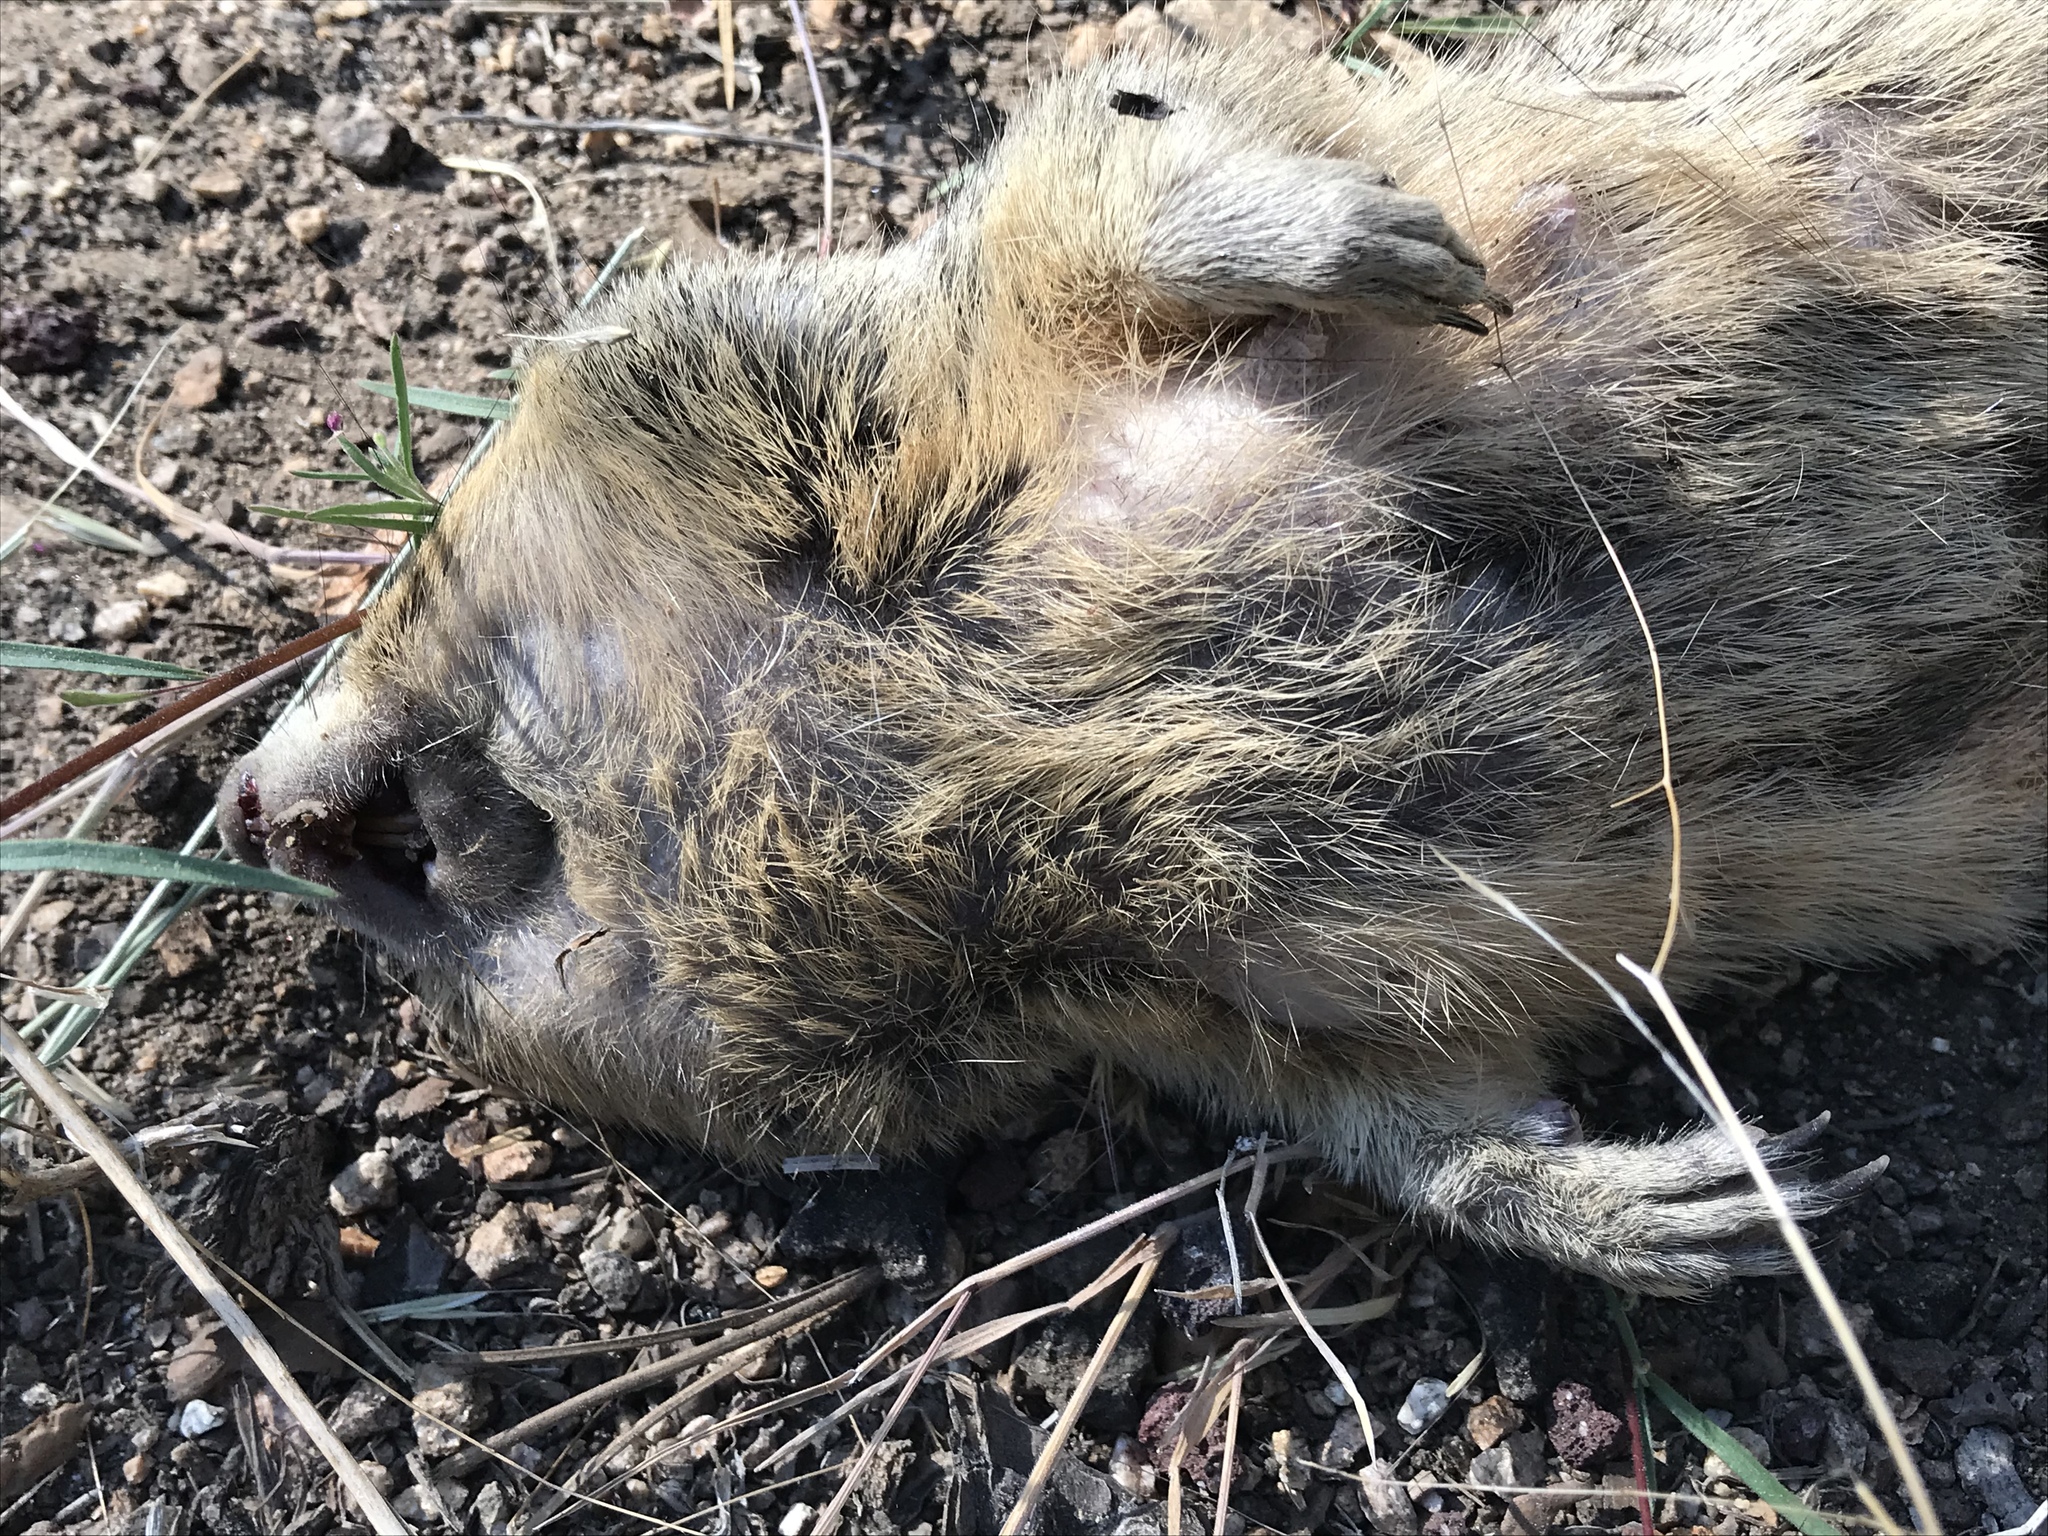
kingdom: Animalia
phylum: Chordata
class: Mammalia
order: Rodentia
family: Sciuridae
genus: Otospermophilus
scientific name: Otospermophilus beecheyi
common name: California ground squirrel
